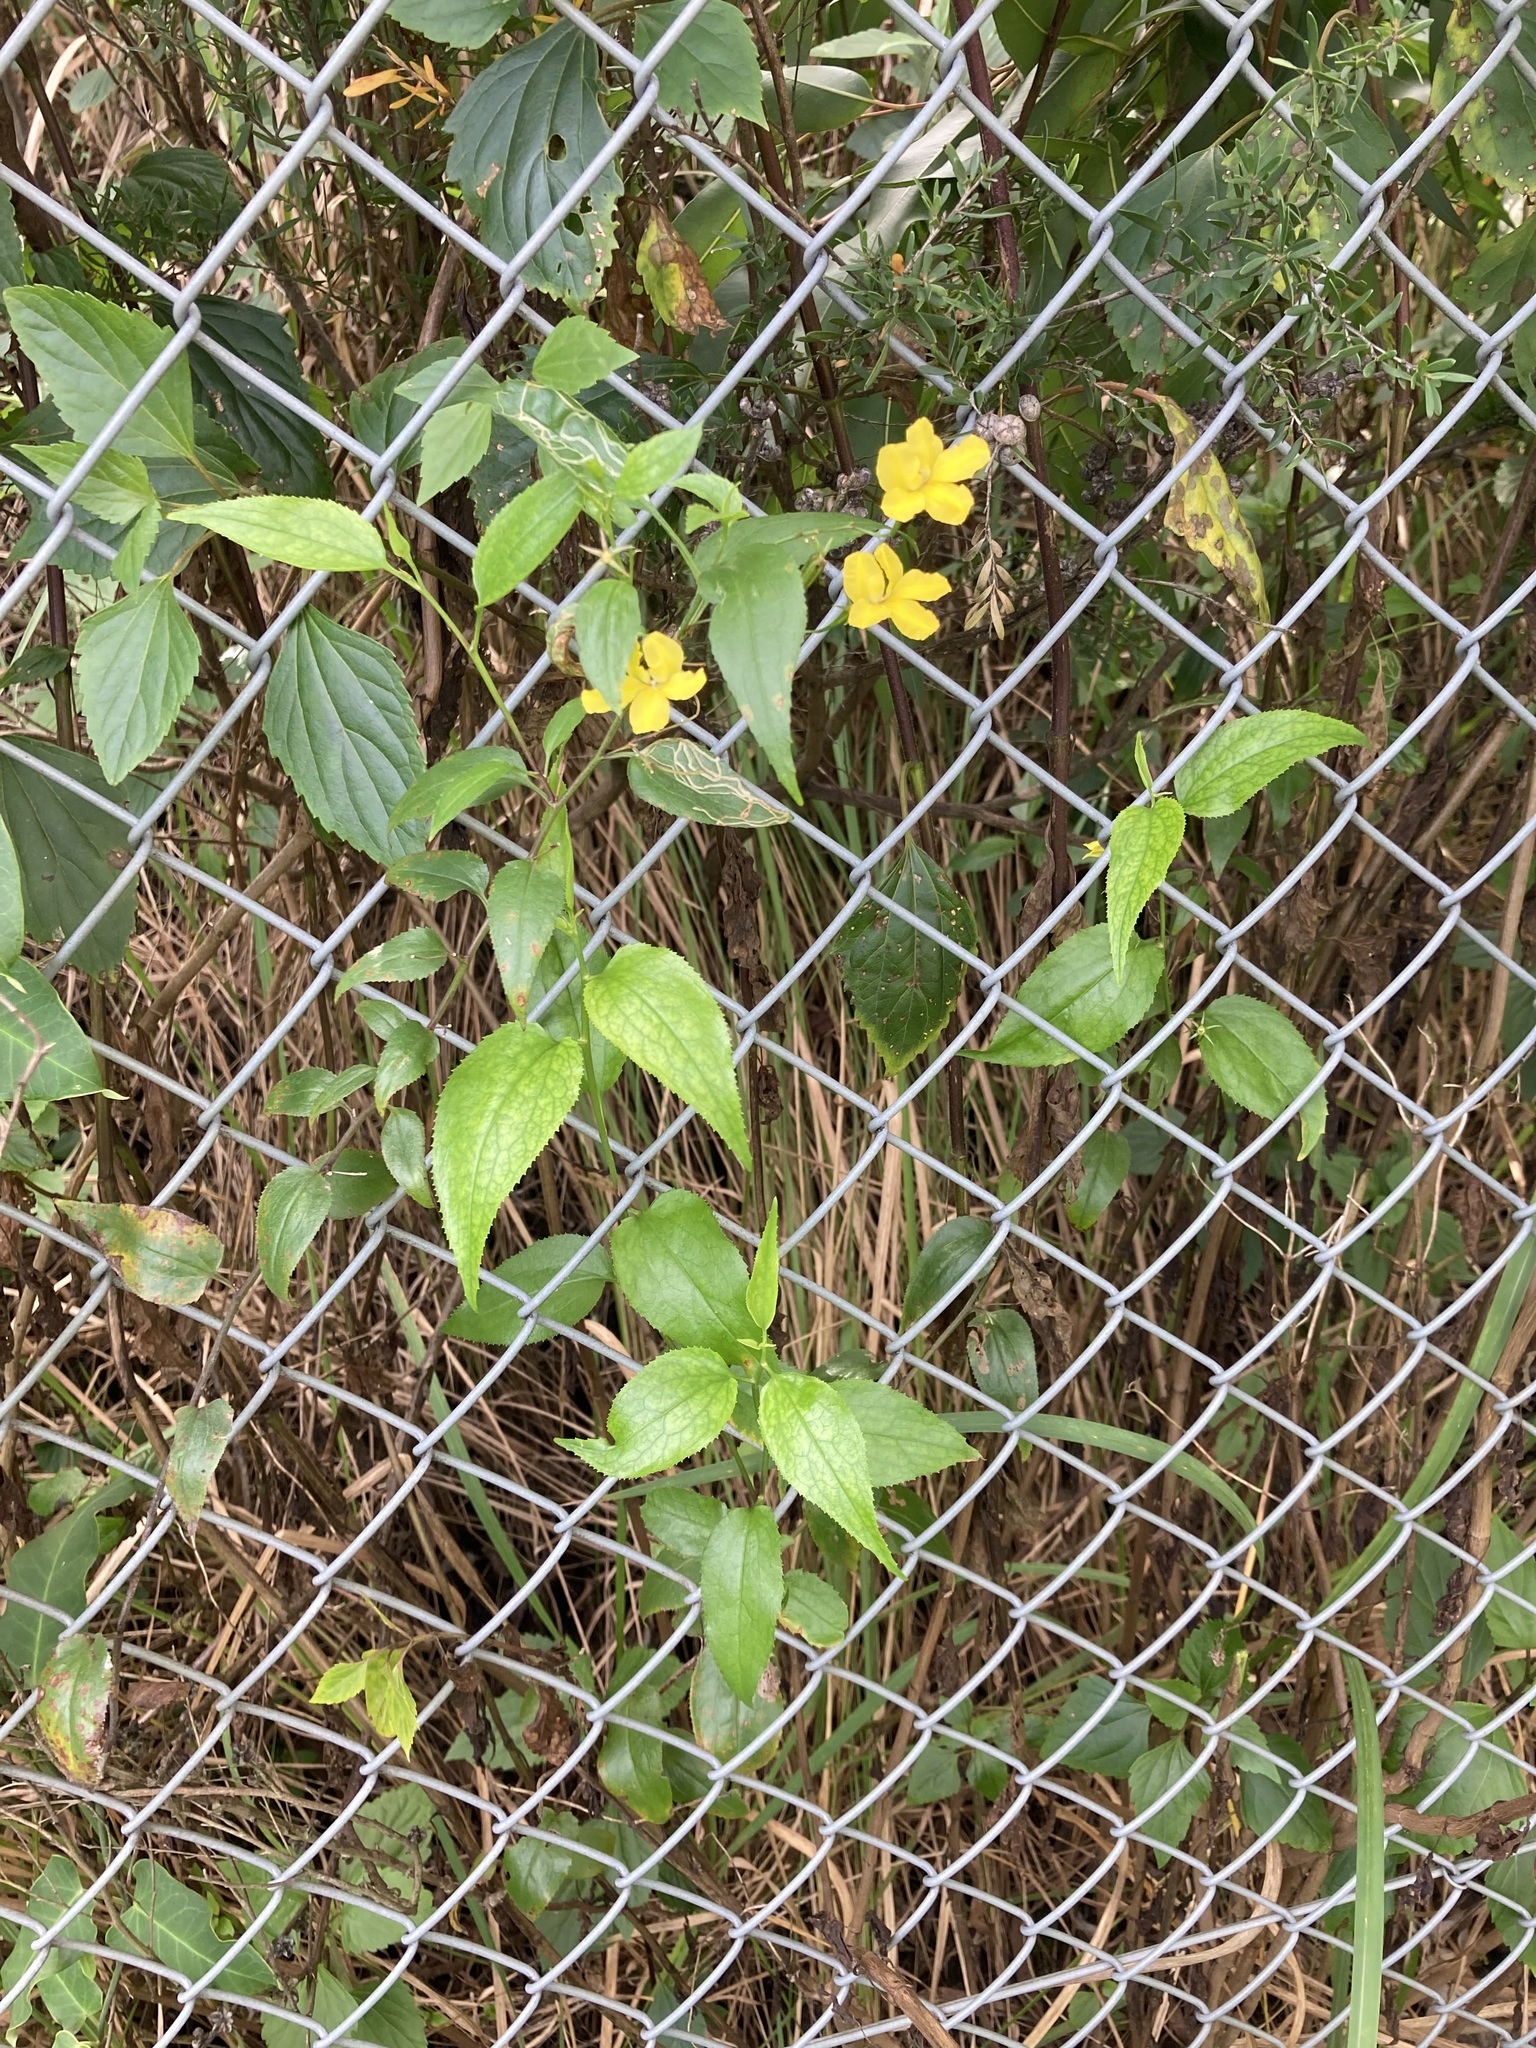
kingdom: Plantae
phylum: Tracheophyta
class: Magnoliopsida
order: Asterales
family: Goodeniaceae
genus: Goodenia
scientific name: Goodenia ovata
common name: Hop goodenia
